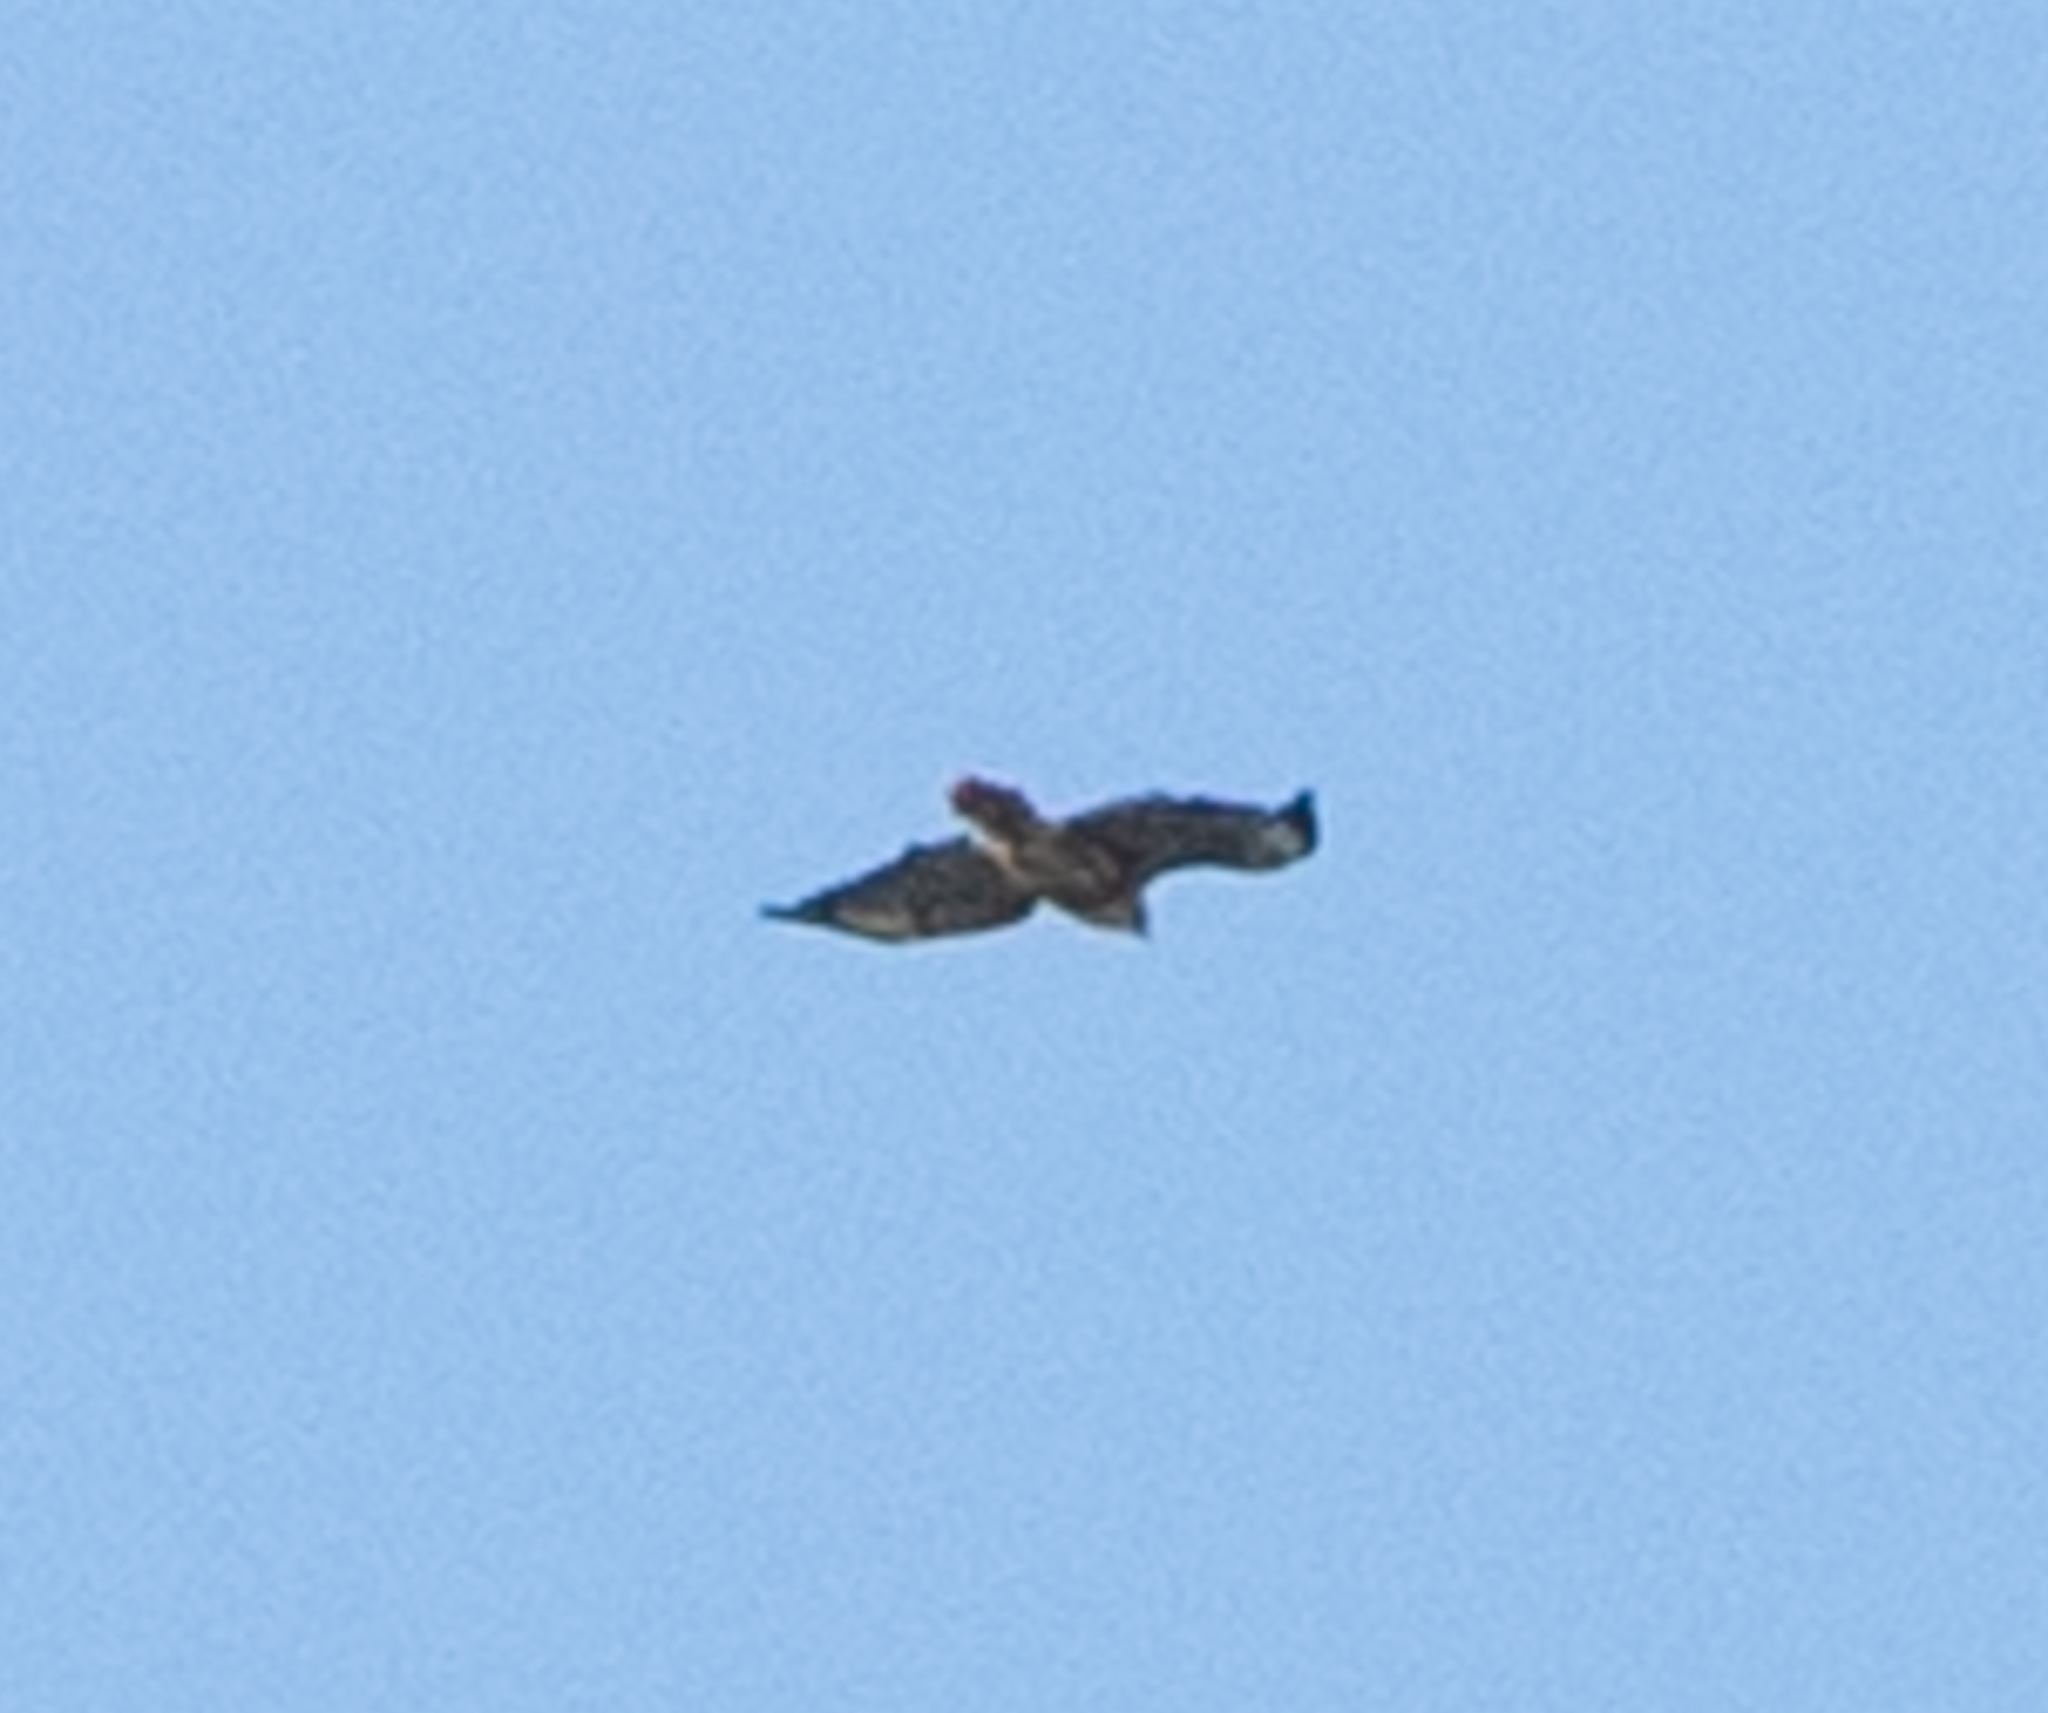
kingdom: Animalia
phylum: Chordata
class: Aves
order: Accipitriformes
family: Accipitridae
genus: Buteo
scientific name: Buteo jamaicensis
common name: Red-tailed hawk
